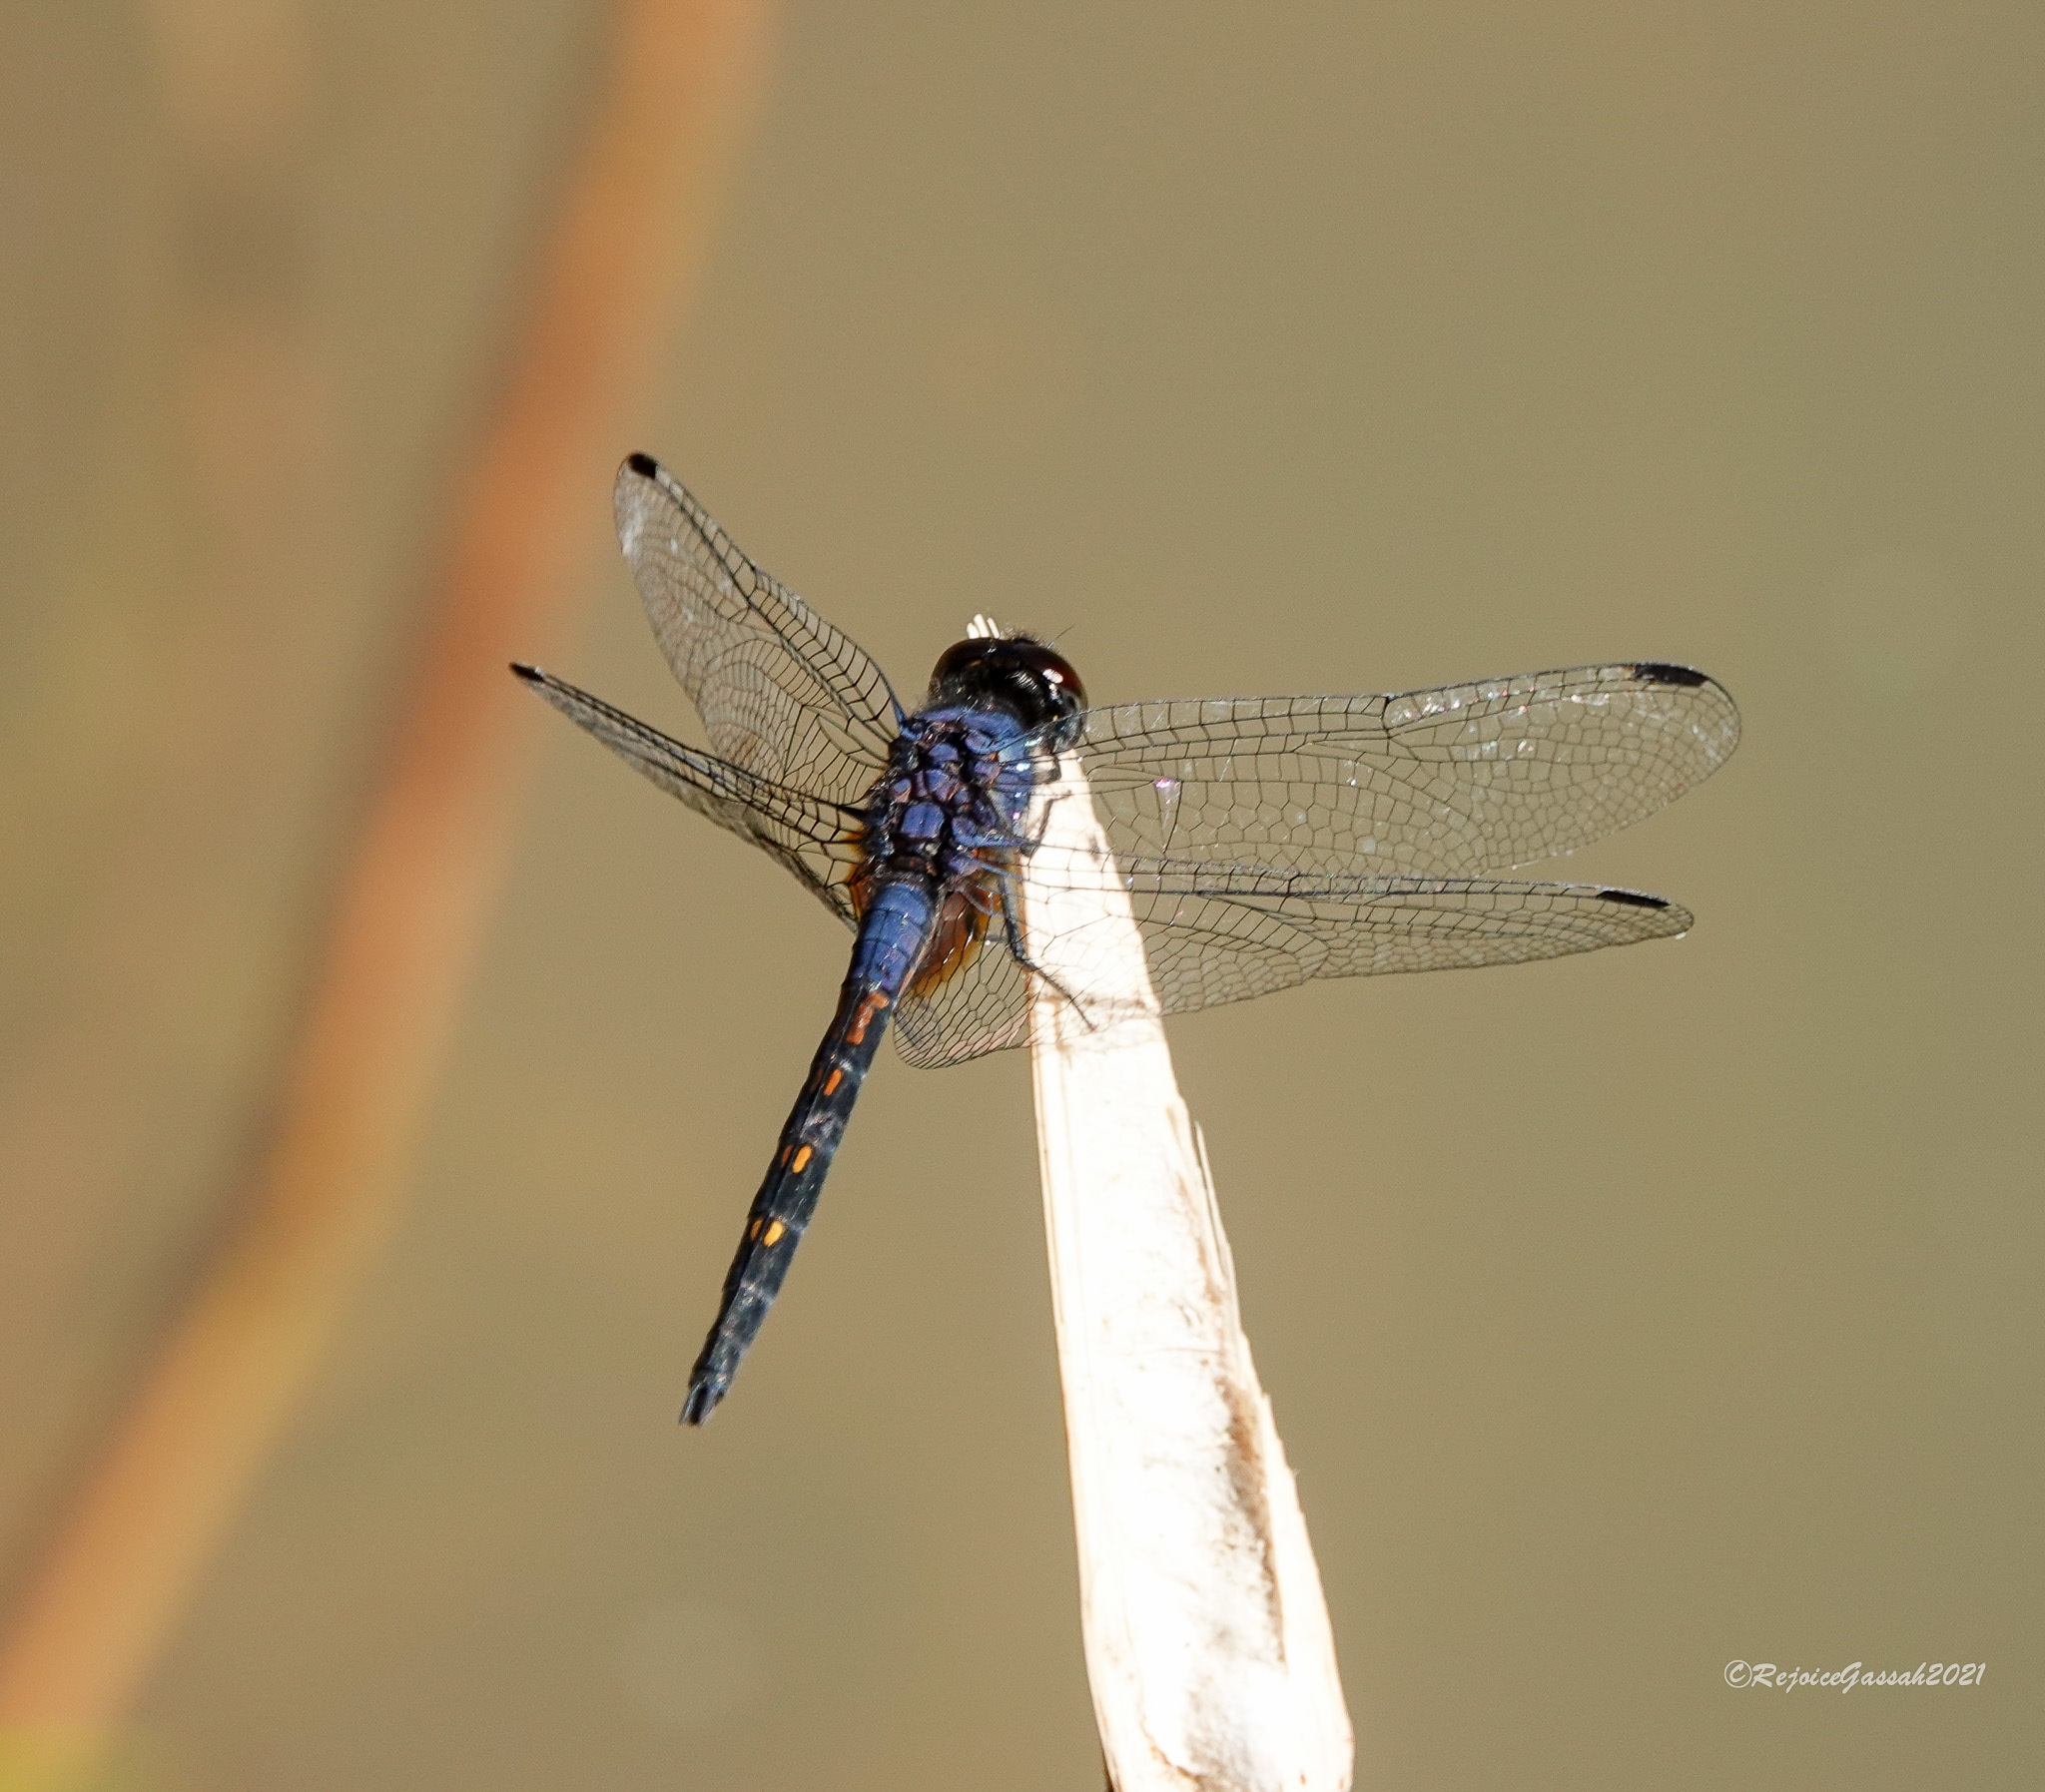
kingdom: Animalia
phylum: Arthropoda
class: Insecta
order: Odonata
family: Libellulidae
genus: Trithemis
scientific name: Trithemis festiva
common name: Indigo dropwing
